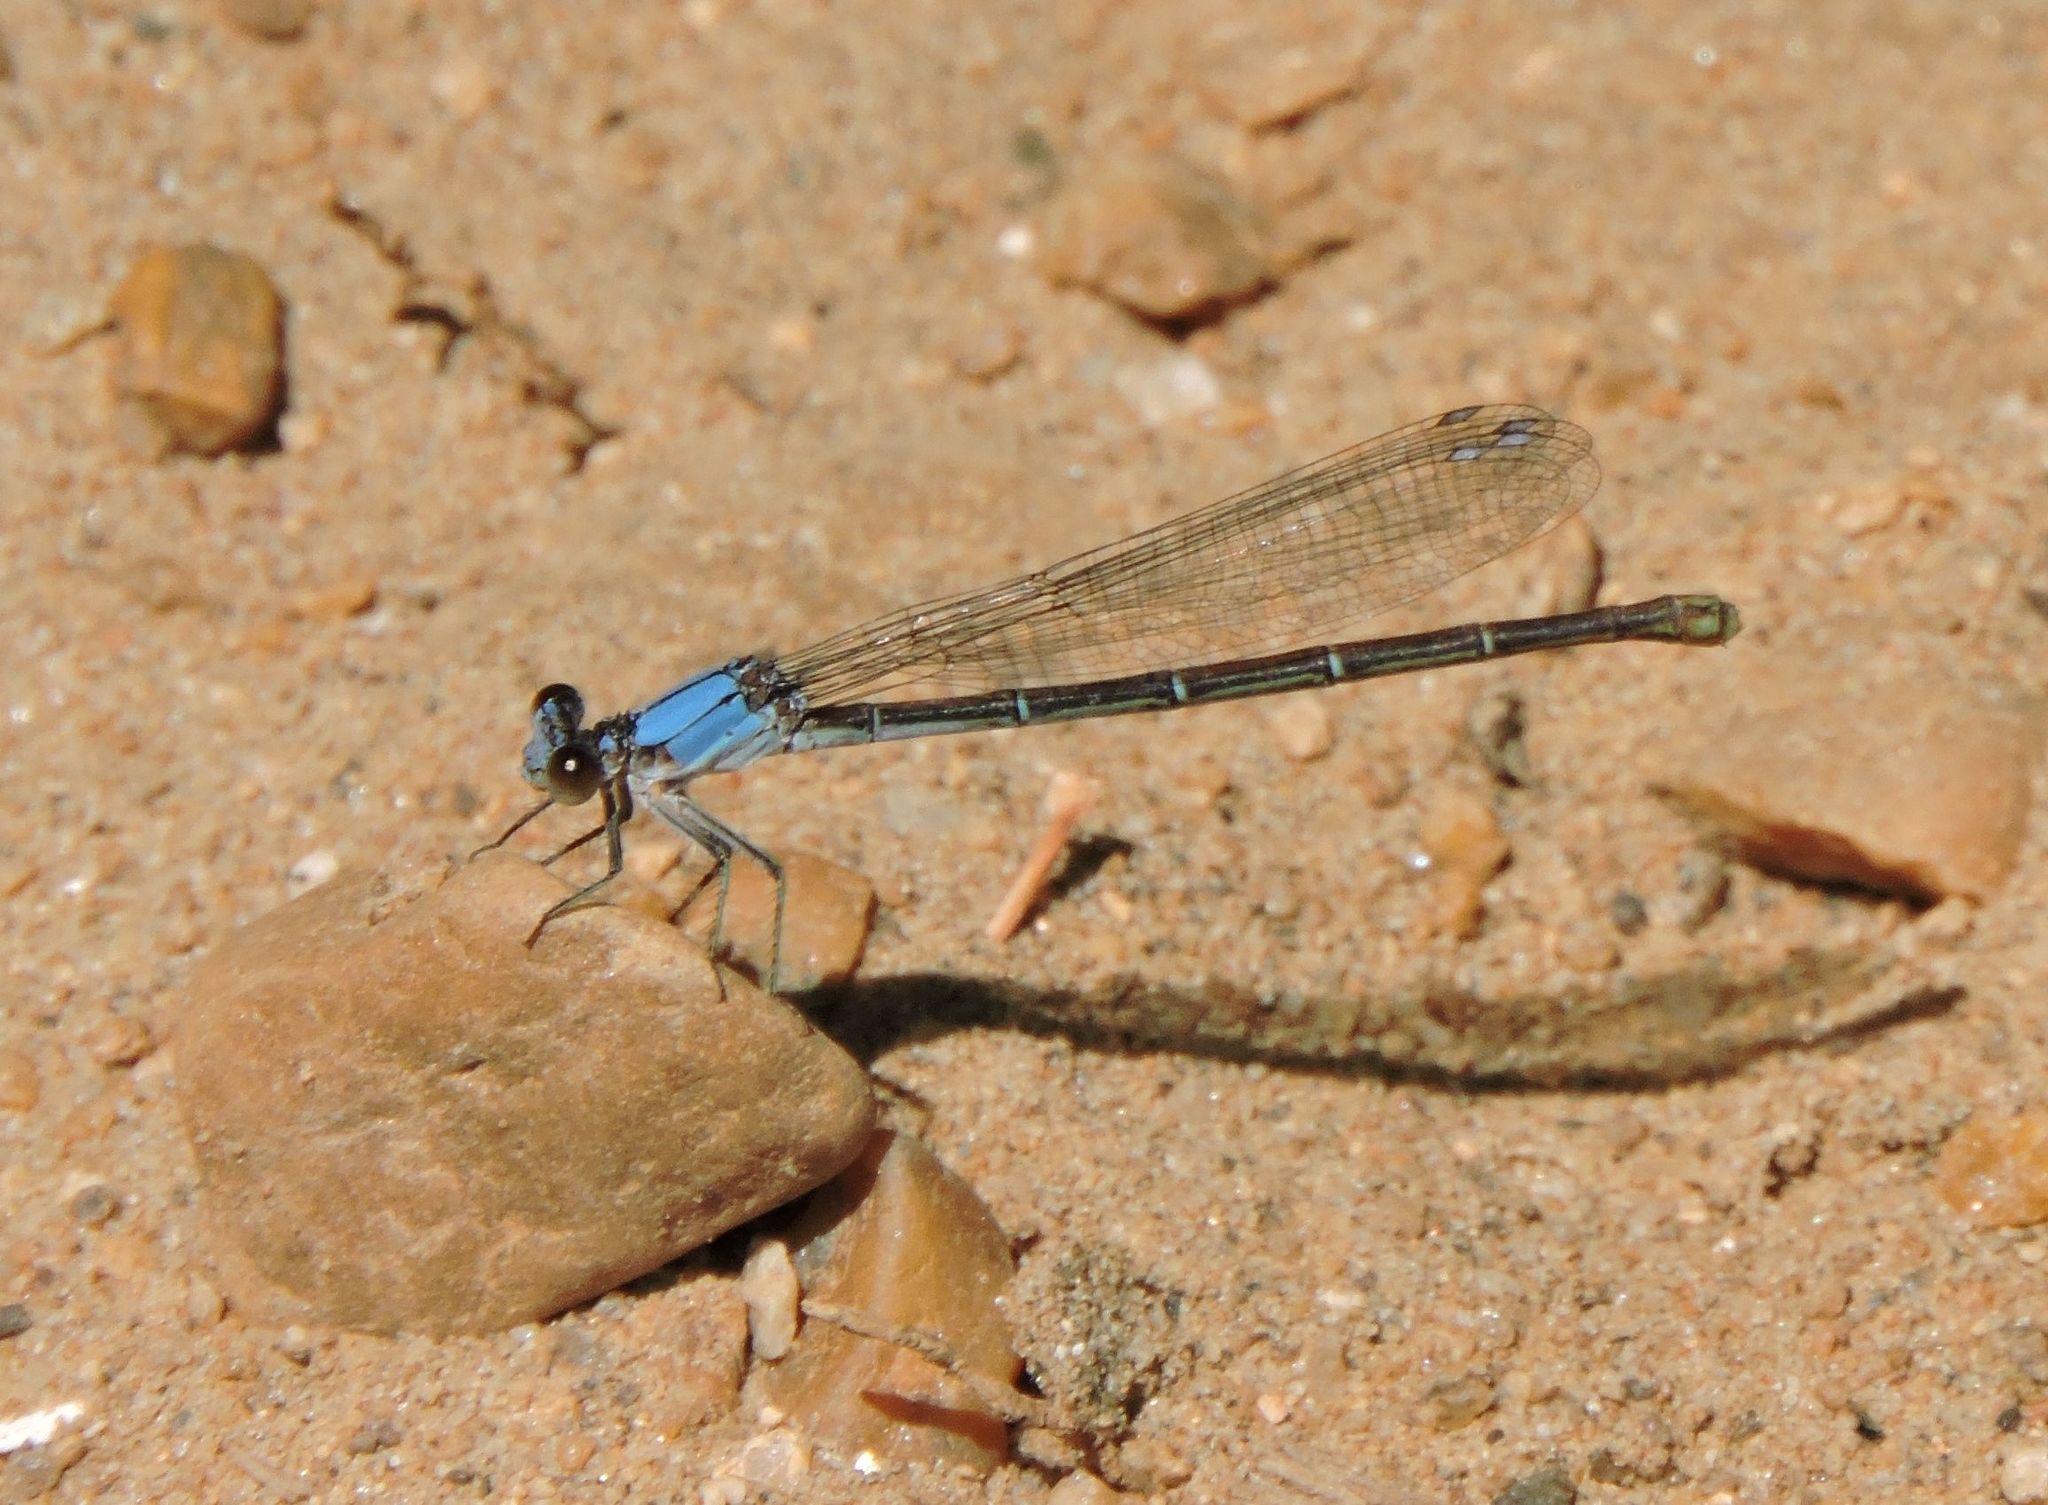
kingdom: Animalia
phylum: Arthropoda
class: Insecta
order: Odonata
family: Coenagrionidae
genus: Argia
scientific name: Argia apicalis
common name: Blue-fronted dancer
